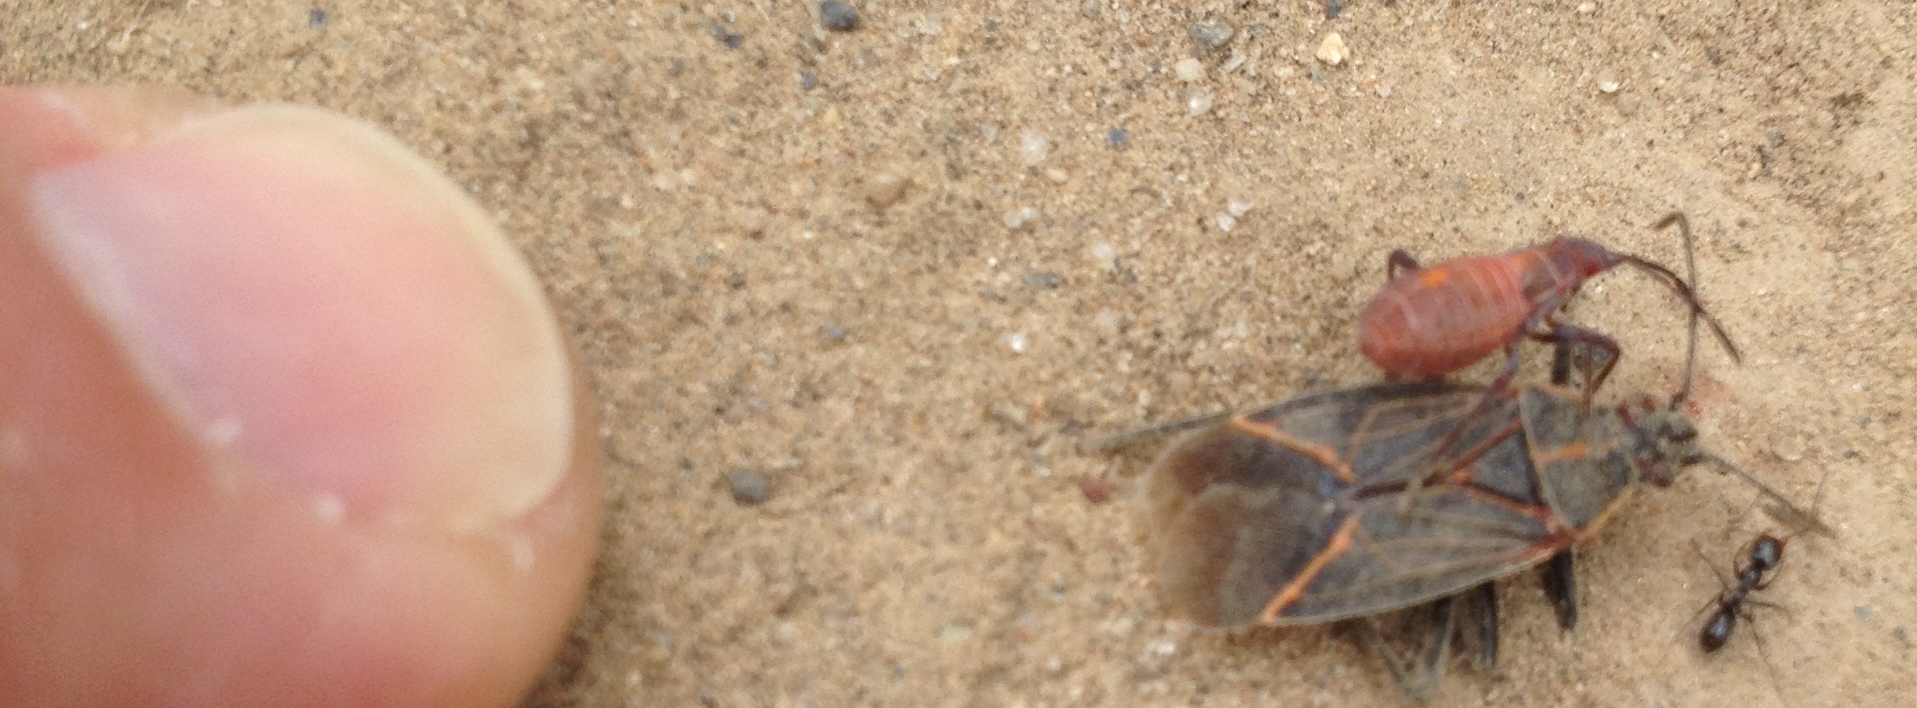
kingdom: Animalia
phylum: Arthropoda
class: Insecta
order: Hymenoptera
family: Formicidae
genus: Dorymyrmex
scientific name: Dorymyrmex insanus
